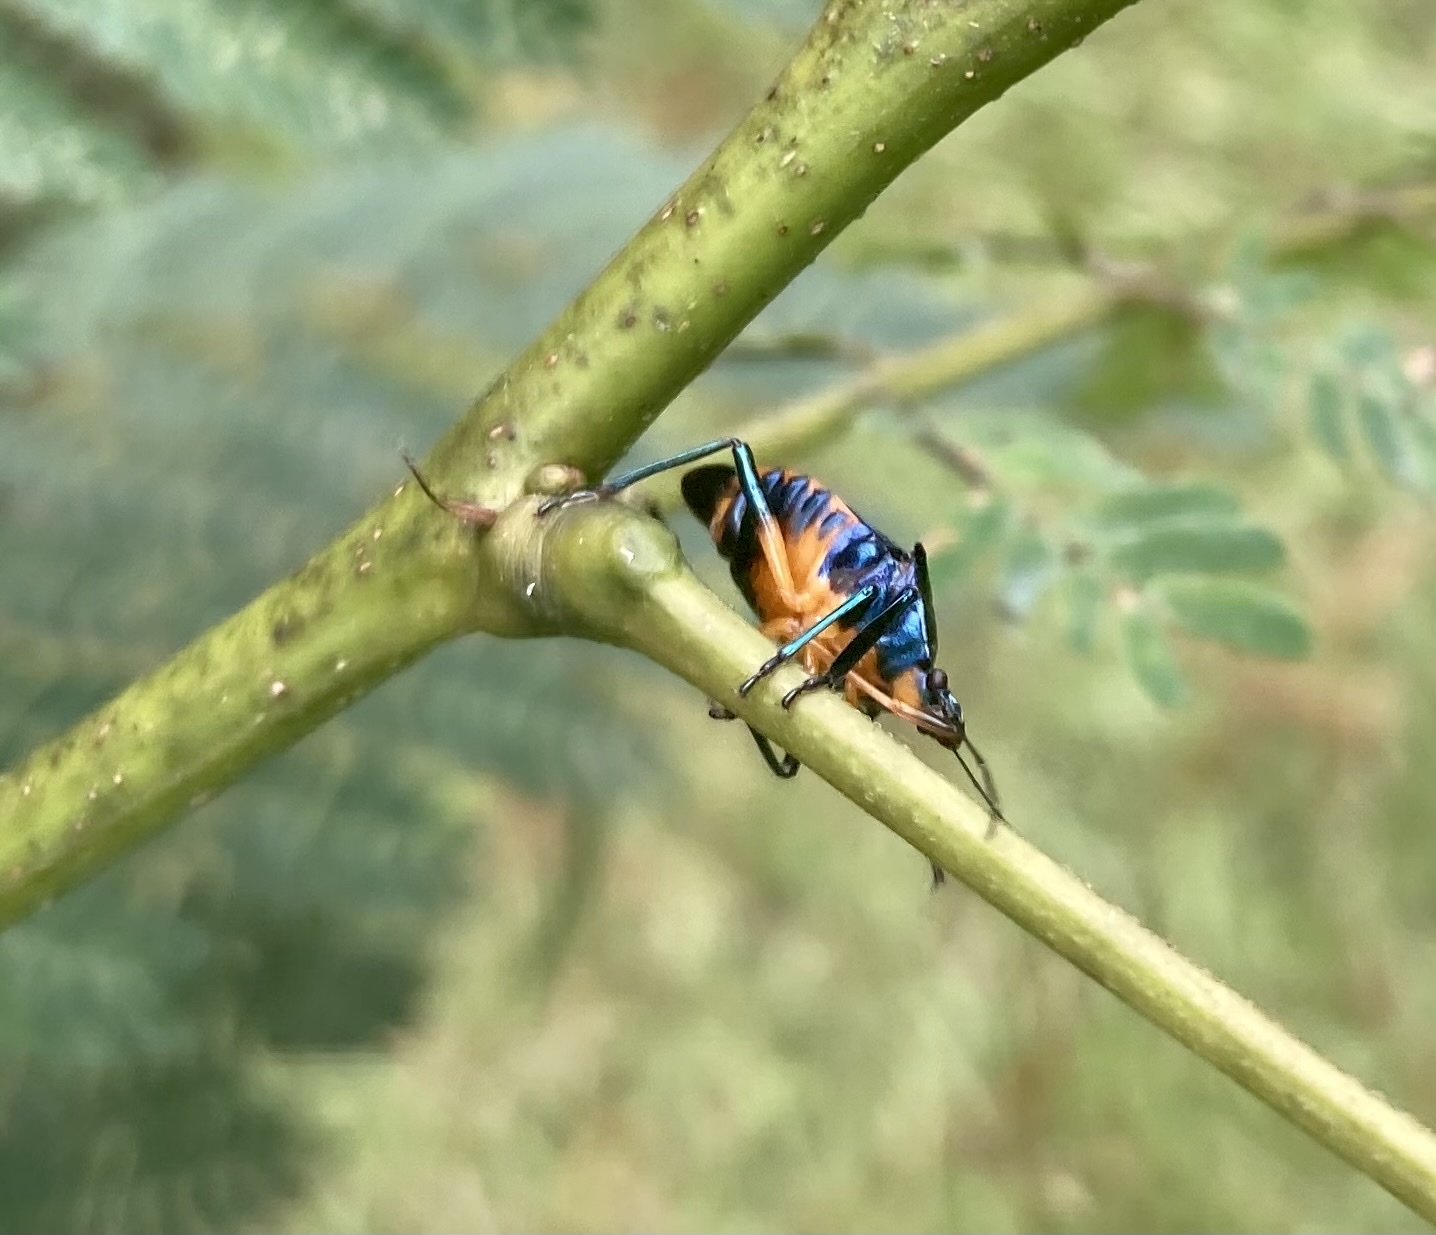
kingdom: Animalia
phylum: Arthropoda
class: Insecta
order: Hemiptera
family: Pentatomidae
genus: Euthyrhynchus
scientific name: Euthyrhynchus floridanus
